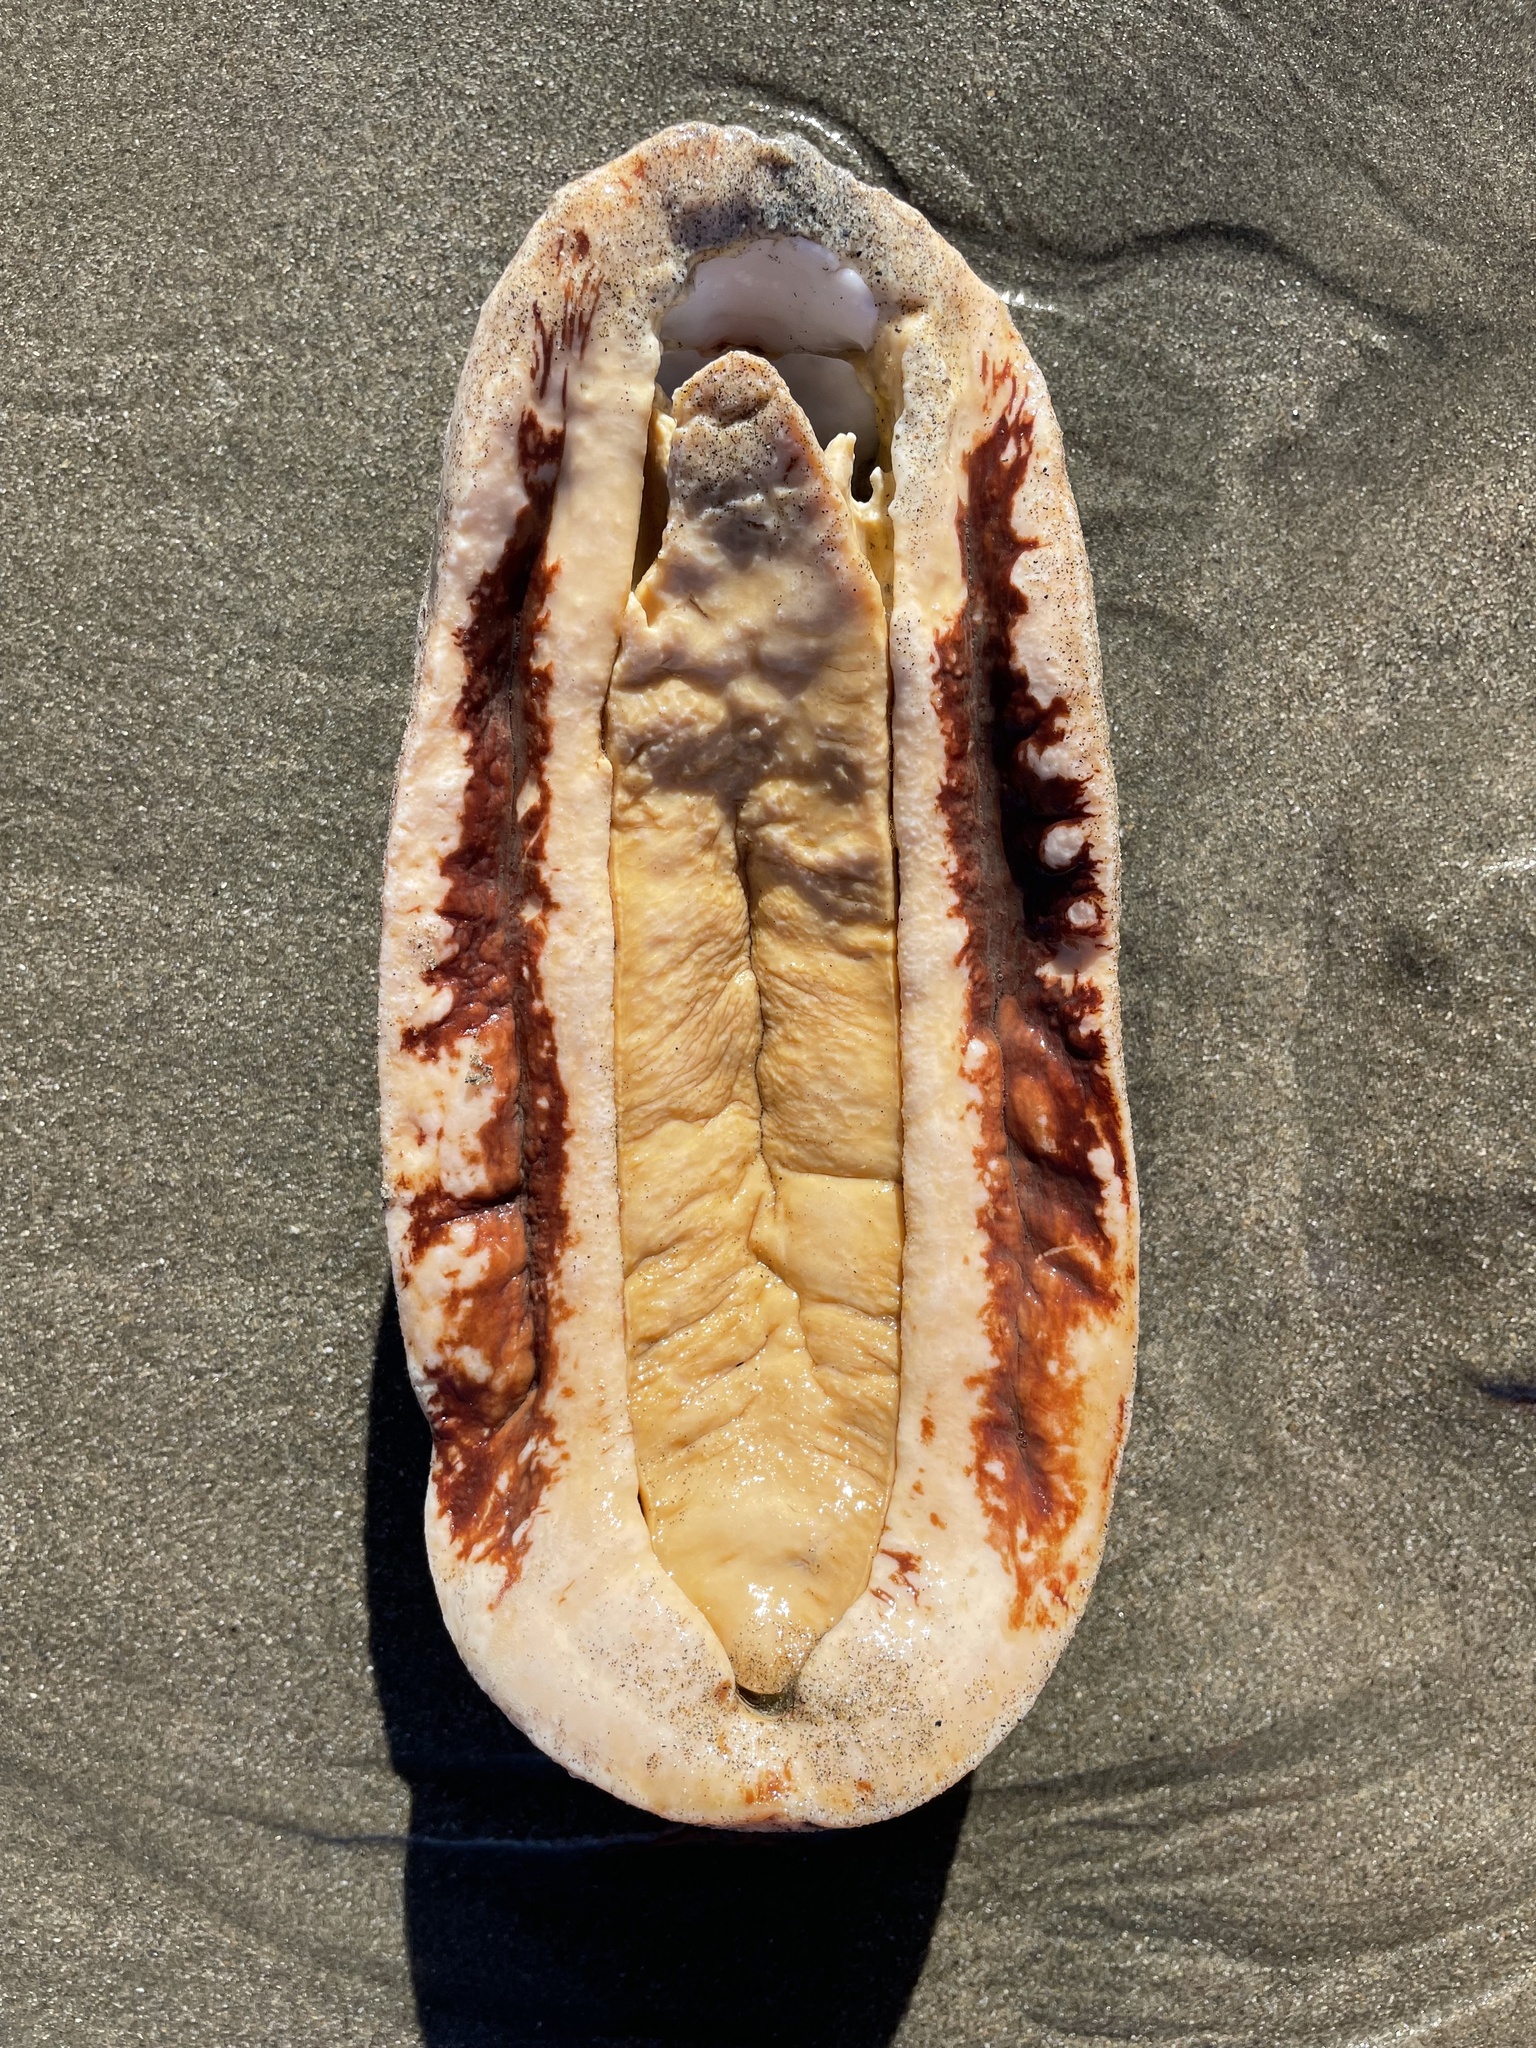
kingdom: Animalia
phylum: Mollusca
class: Polyplacophora
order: Chitonida
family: Acanthochitonidae
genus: Cryptochiton
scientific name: Cryptochiton stelleri
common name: Giant pacific chiton
